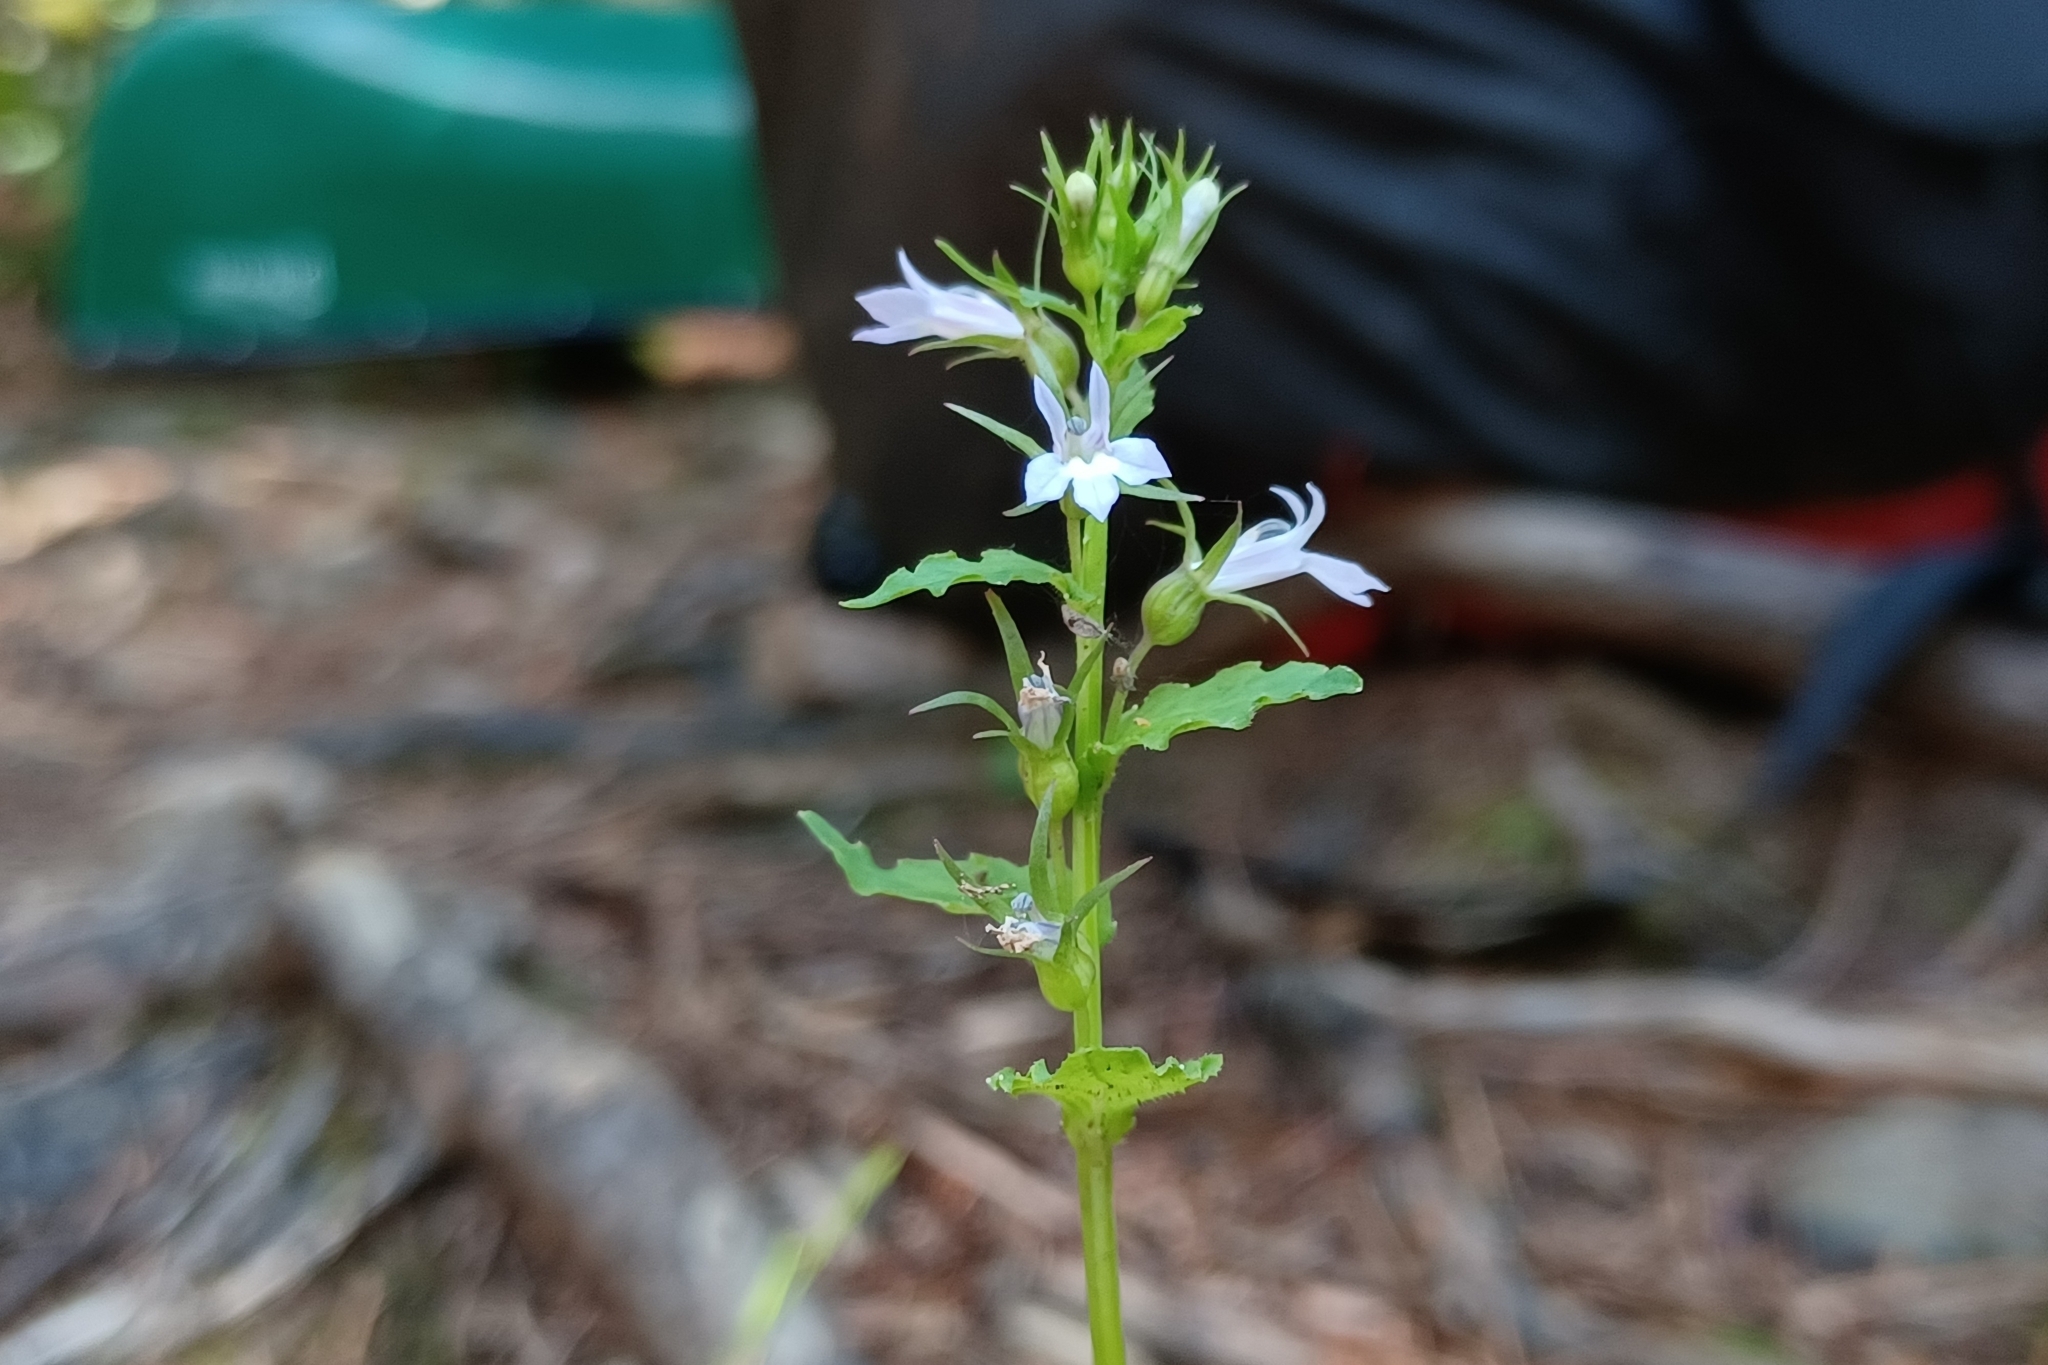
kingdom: Plantae
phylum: Tracheophyta
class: Magnoliopsida
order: Asterales
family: Campanulaceae
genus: Lobelia
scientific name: Lobelia inflata
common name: Indian tobacco
